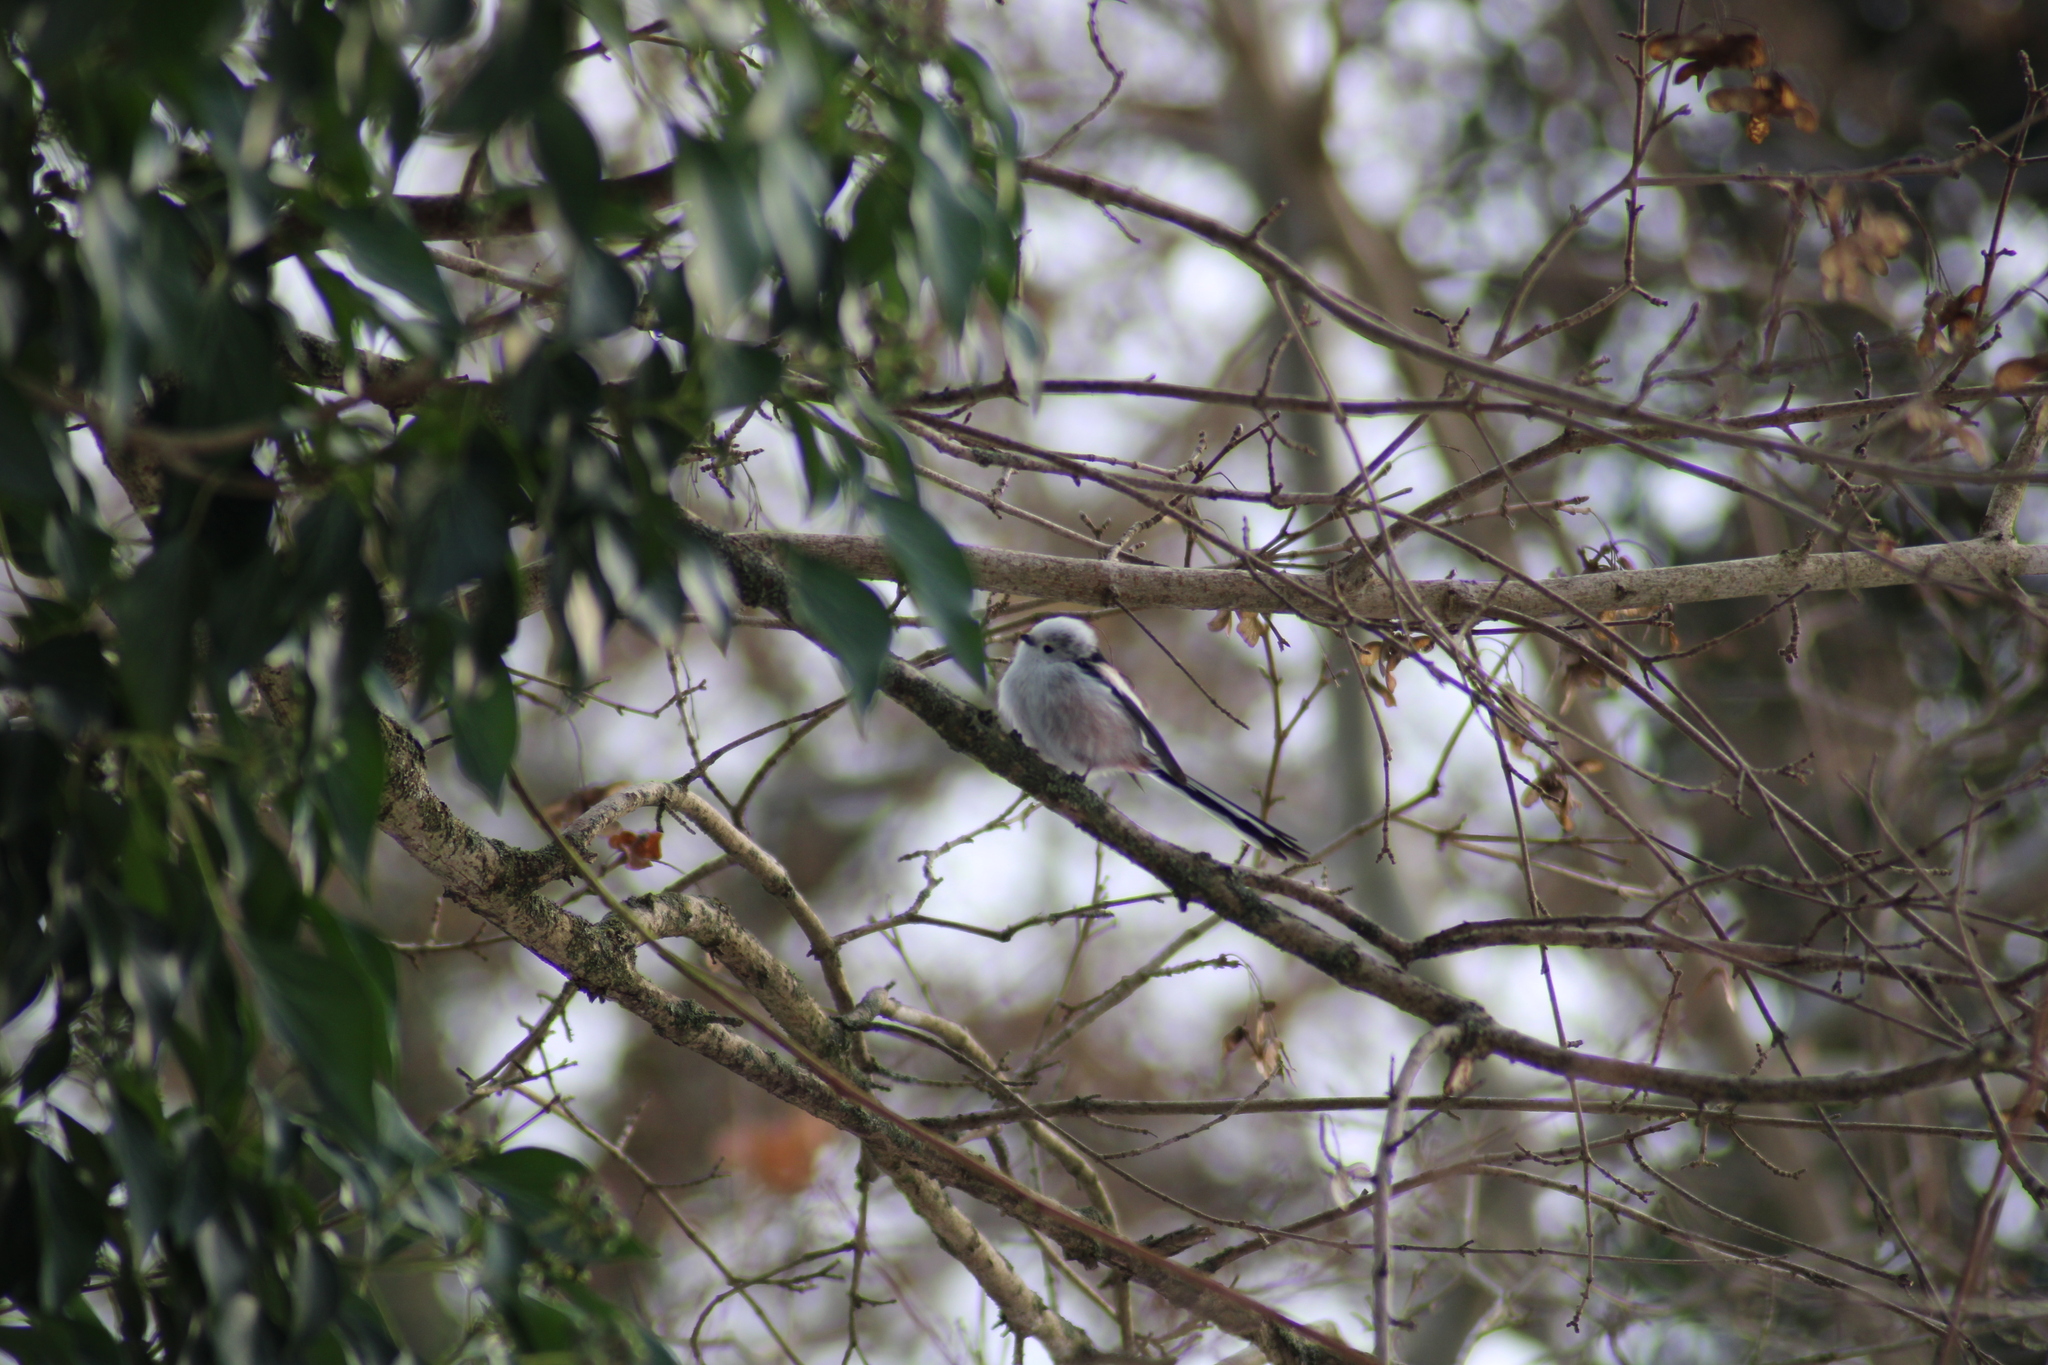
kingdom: Animalia
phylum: Chordata
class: Aves
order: Passeriformes
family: Aegithalidae
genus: Aegithalos
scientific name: Aegithalos caudatus
